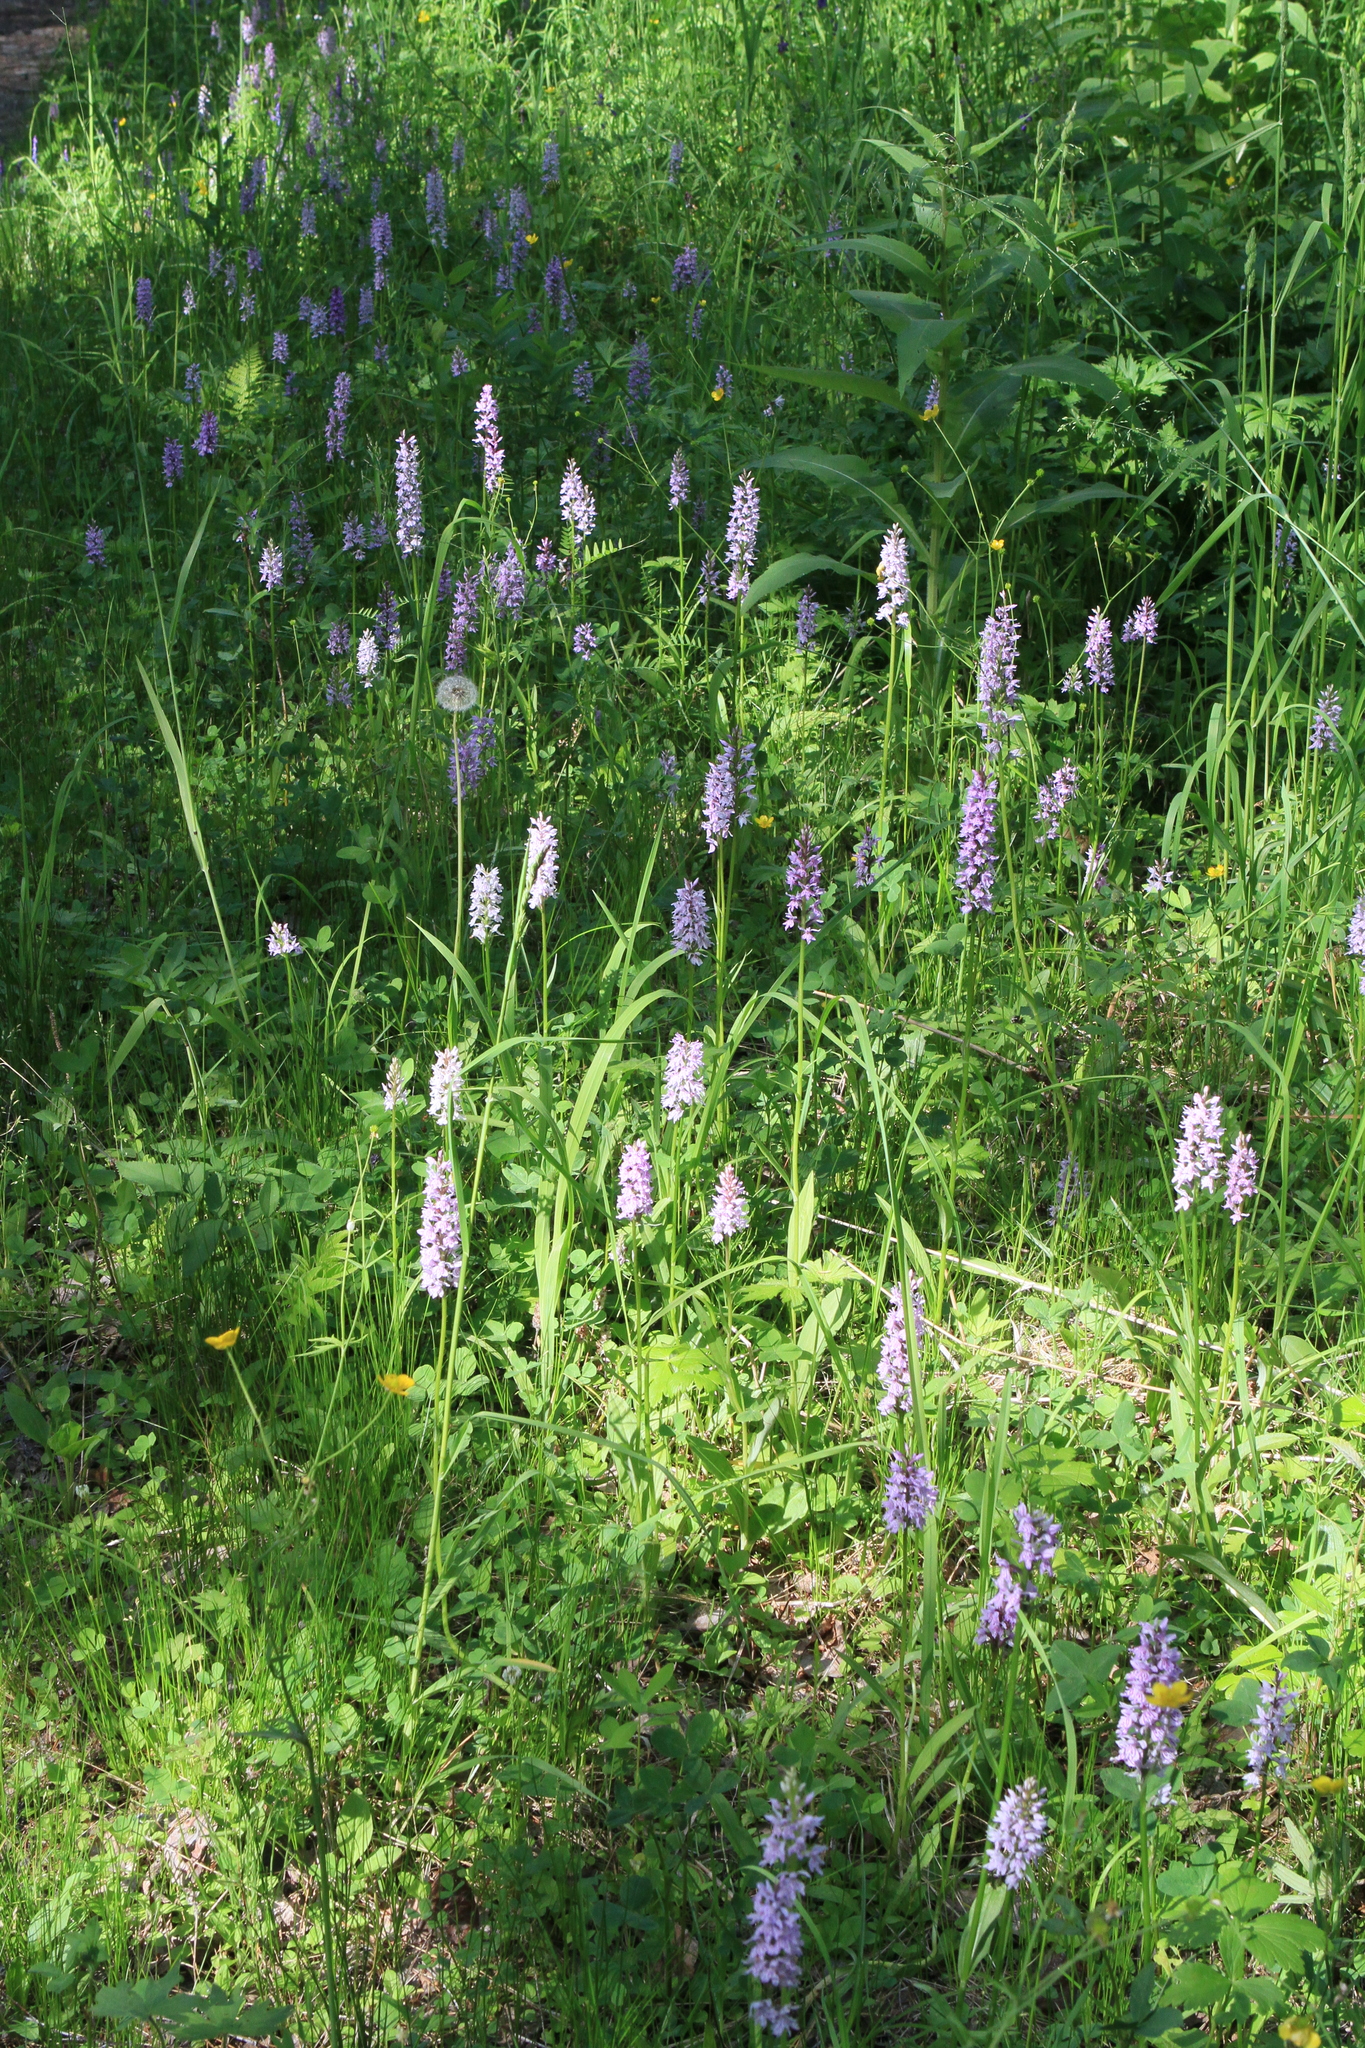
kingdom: Plantae
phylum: Tracheophyta
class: Liliopsida
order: Asparagales
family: Orchidaceae
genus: Dactylorhiza
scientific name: Dactylorhiza maculata
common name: Heath spotted-orchid
